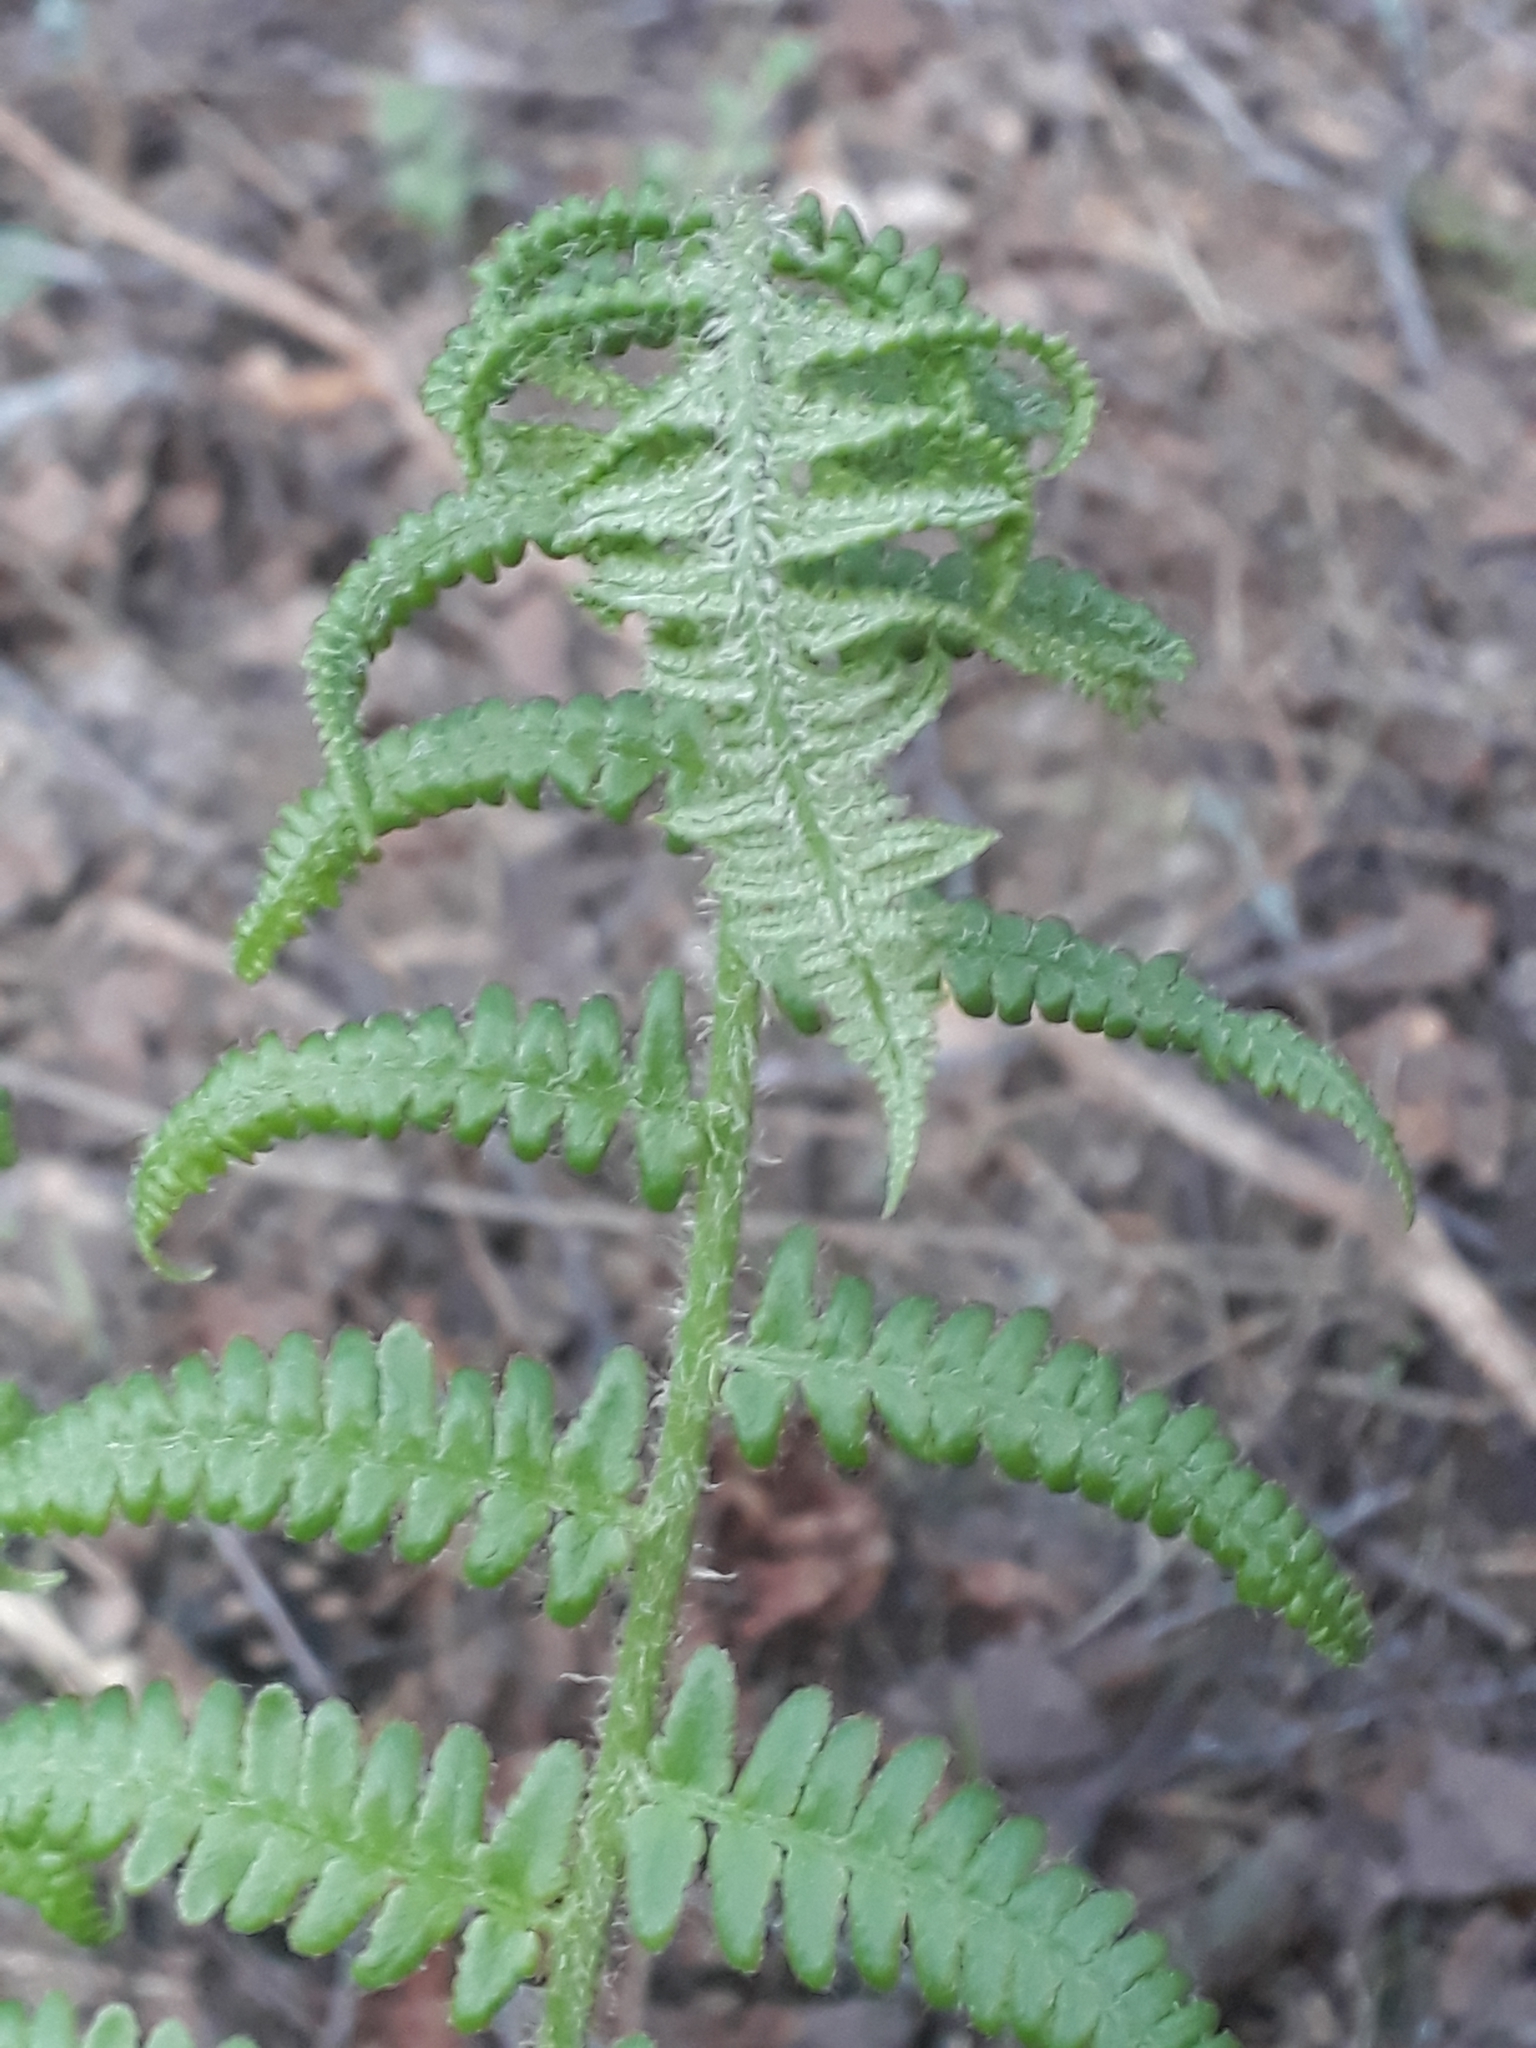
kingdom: Plantae
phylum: Tracheophyta
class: Polypodiopsida
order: Polypodiales
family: Dryopteridaceae
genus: Dryopteris
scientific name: Dryopteris filix-mas
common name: Male fern
